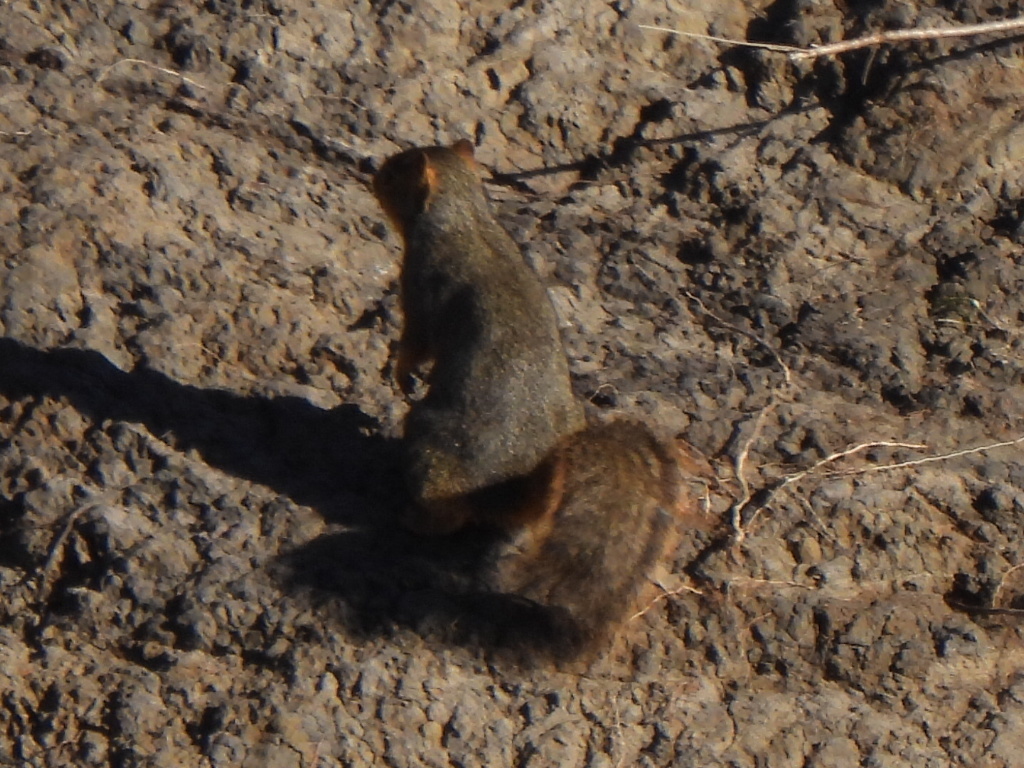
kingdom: Animalia
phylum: Chordata
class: Mammalia
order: Rodentia
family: Sciuridae
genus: Sciurus
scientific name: Sciurus niger
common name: Fox squirrel
